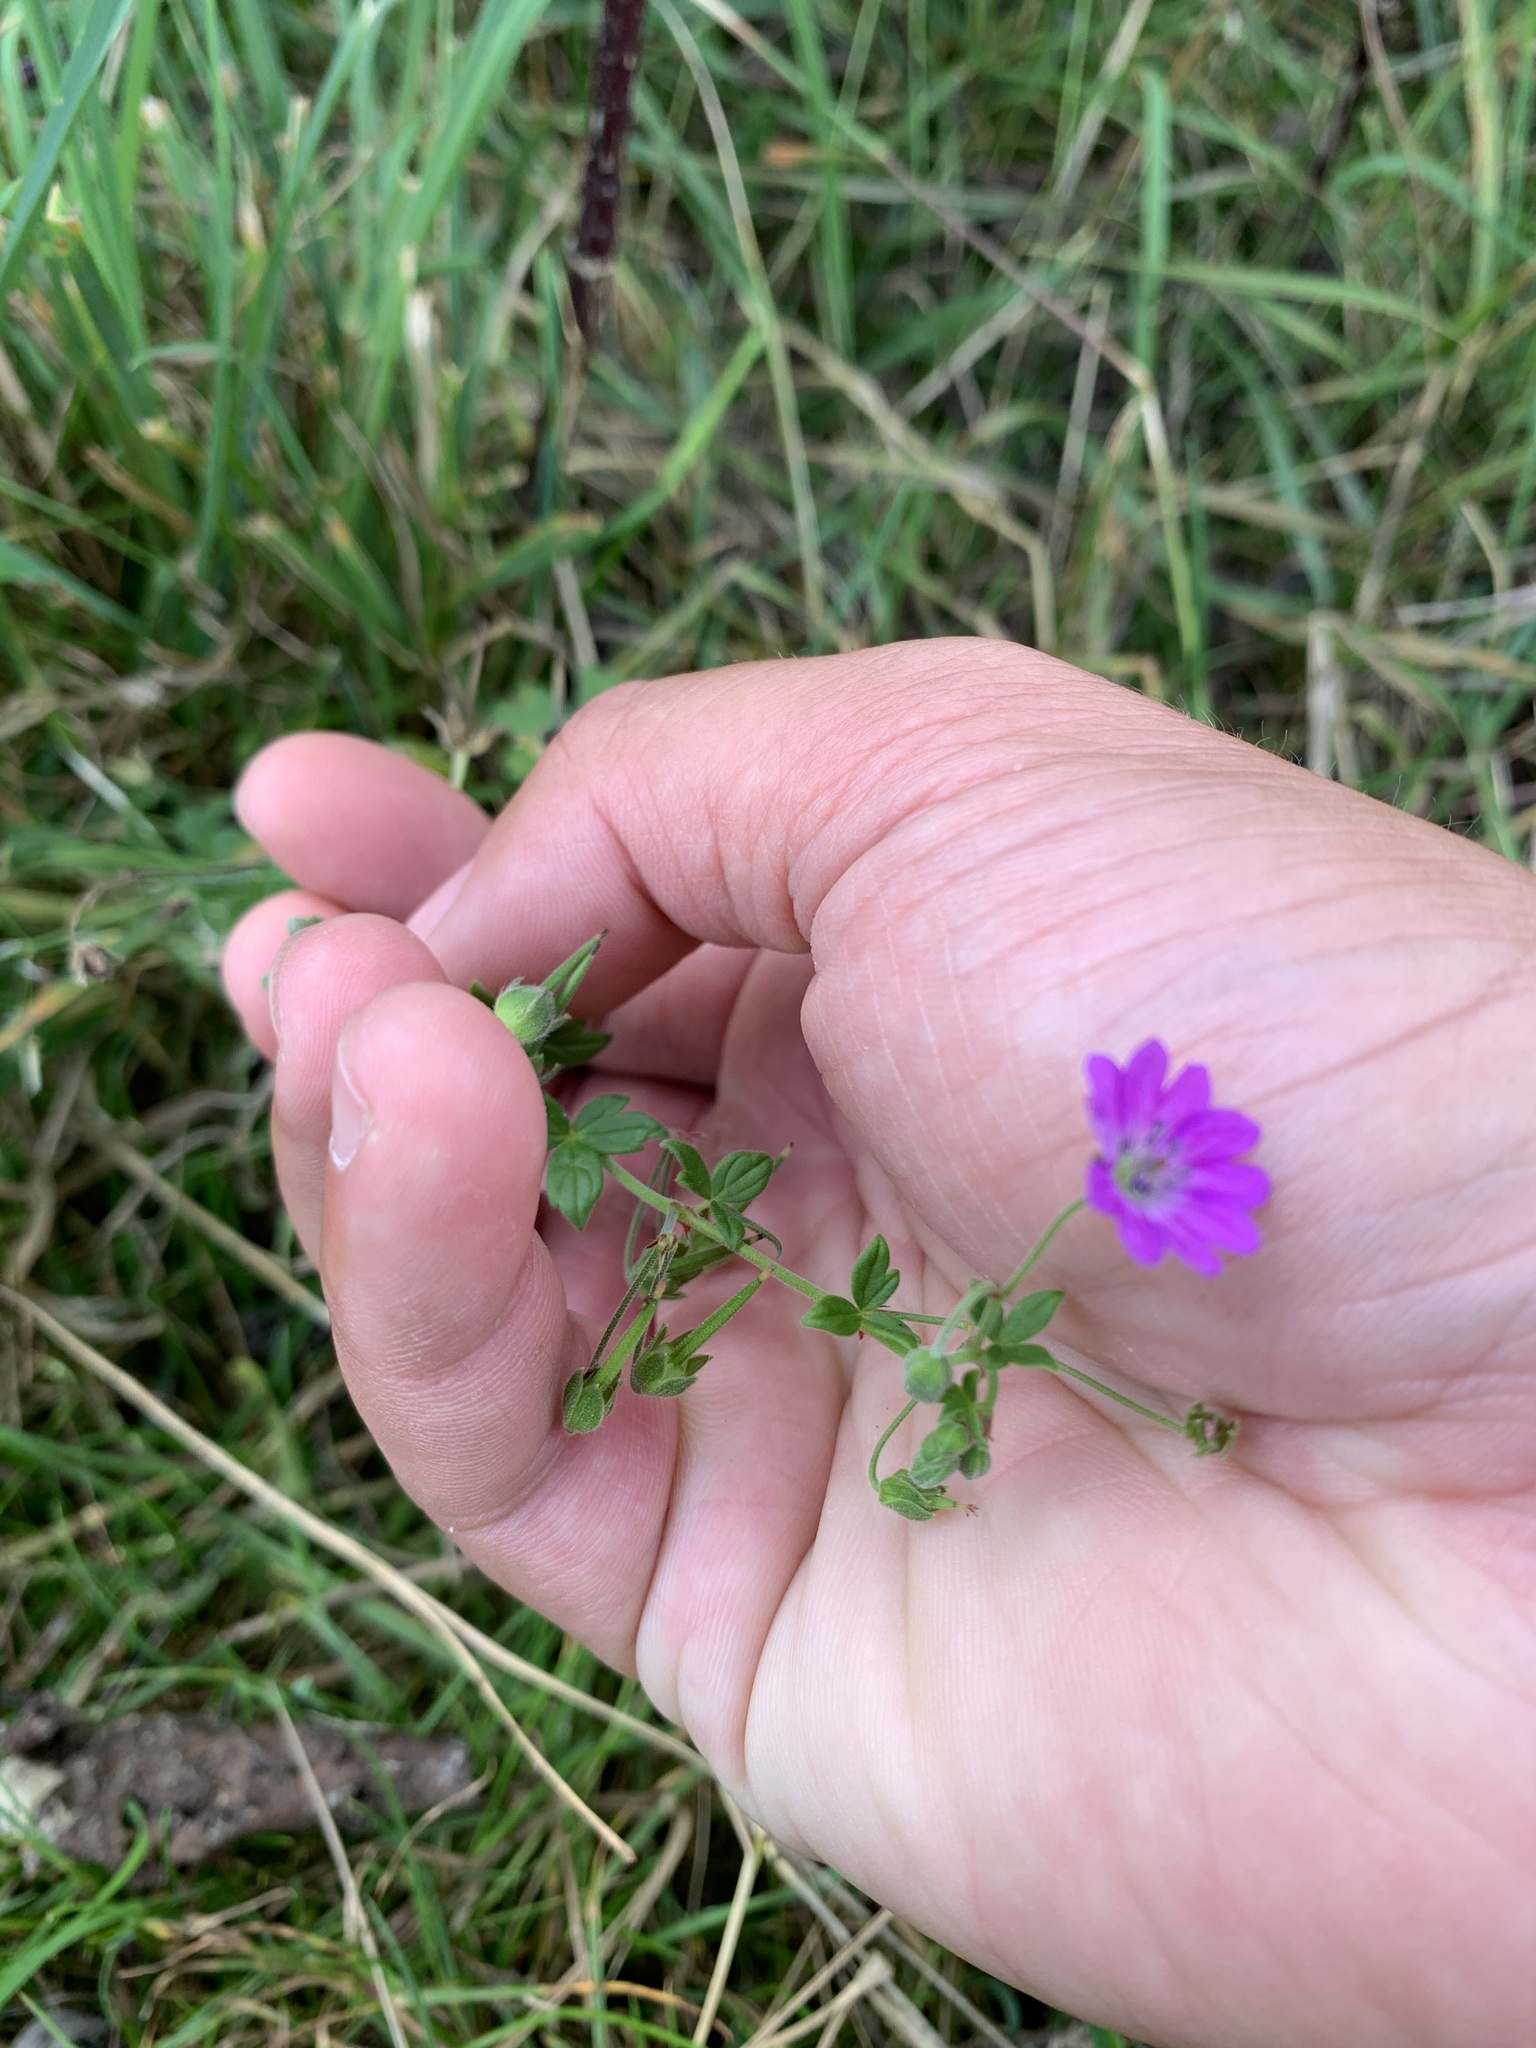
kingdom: Plantae
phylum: Tracheophyta
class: Magnoliopsida
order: Geraniales
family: Geraniaceae
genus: Geranium
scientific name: Geranium pyrenaicum
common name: Hedgerow crane's-bill
